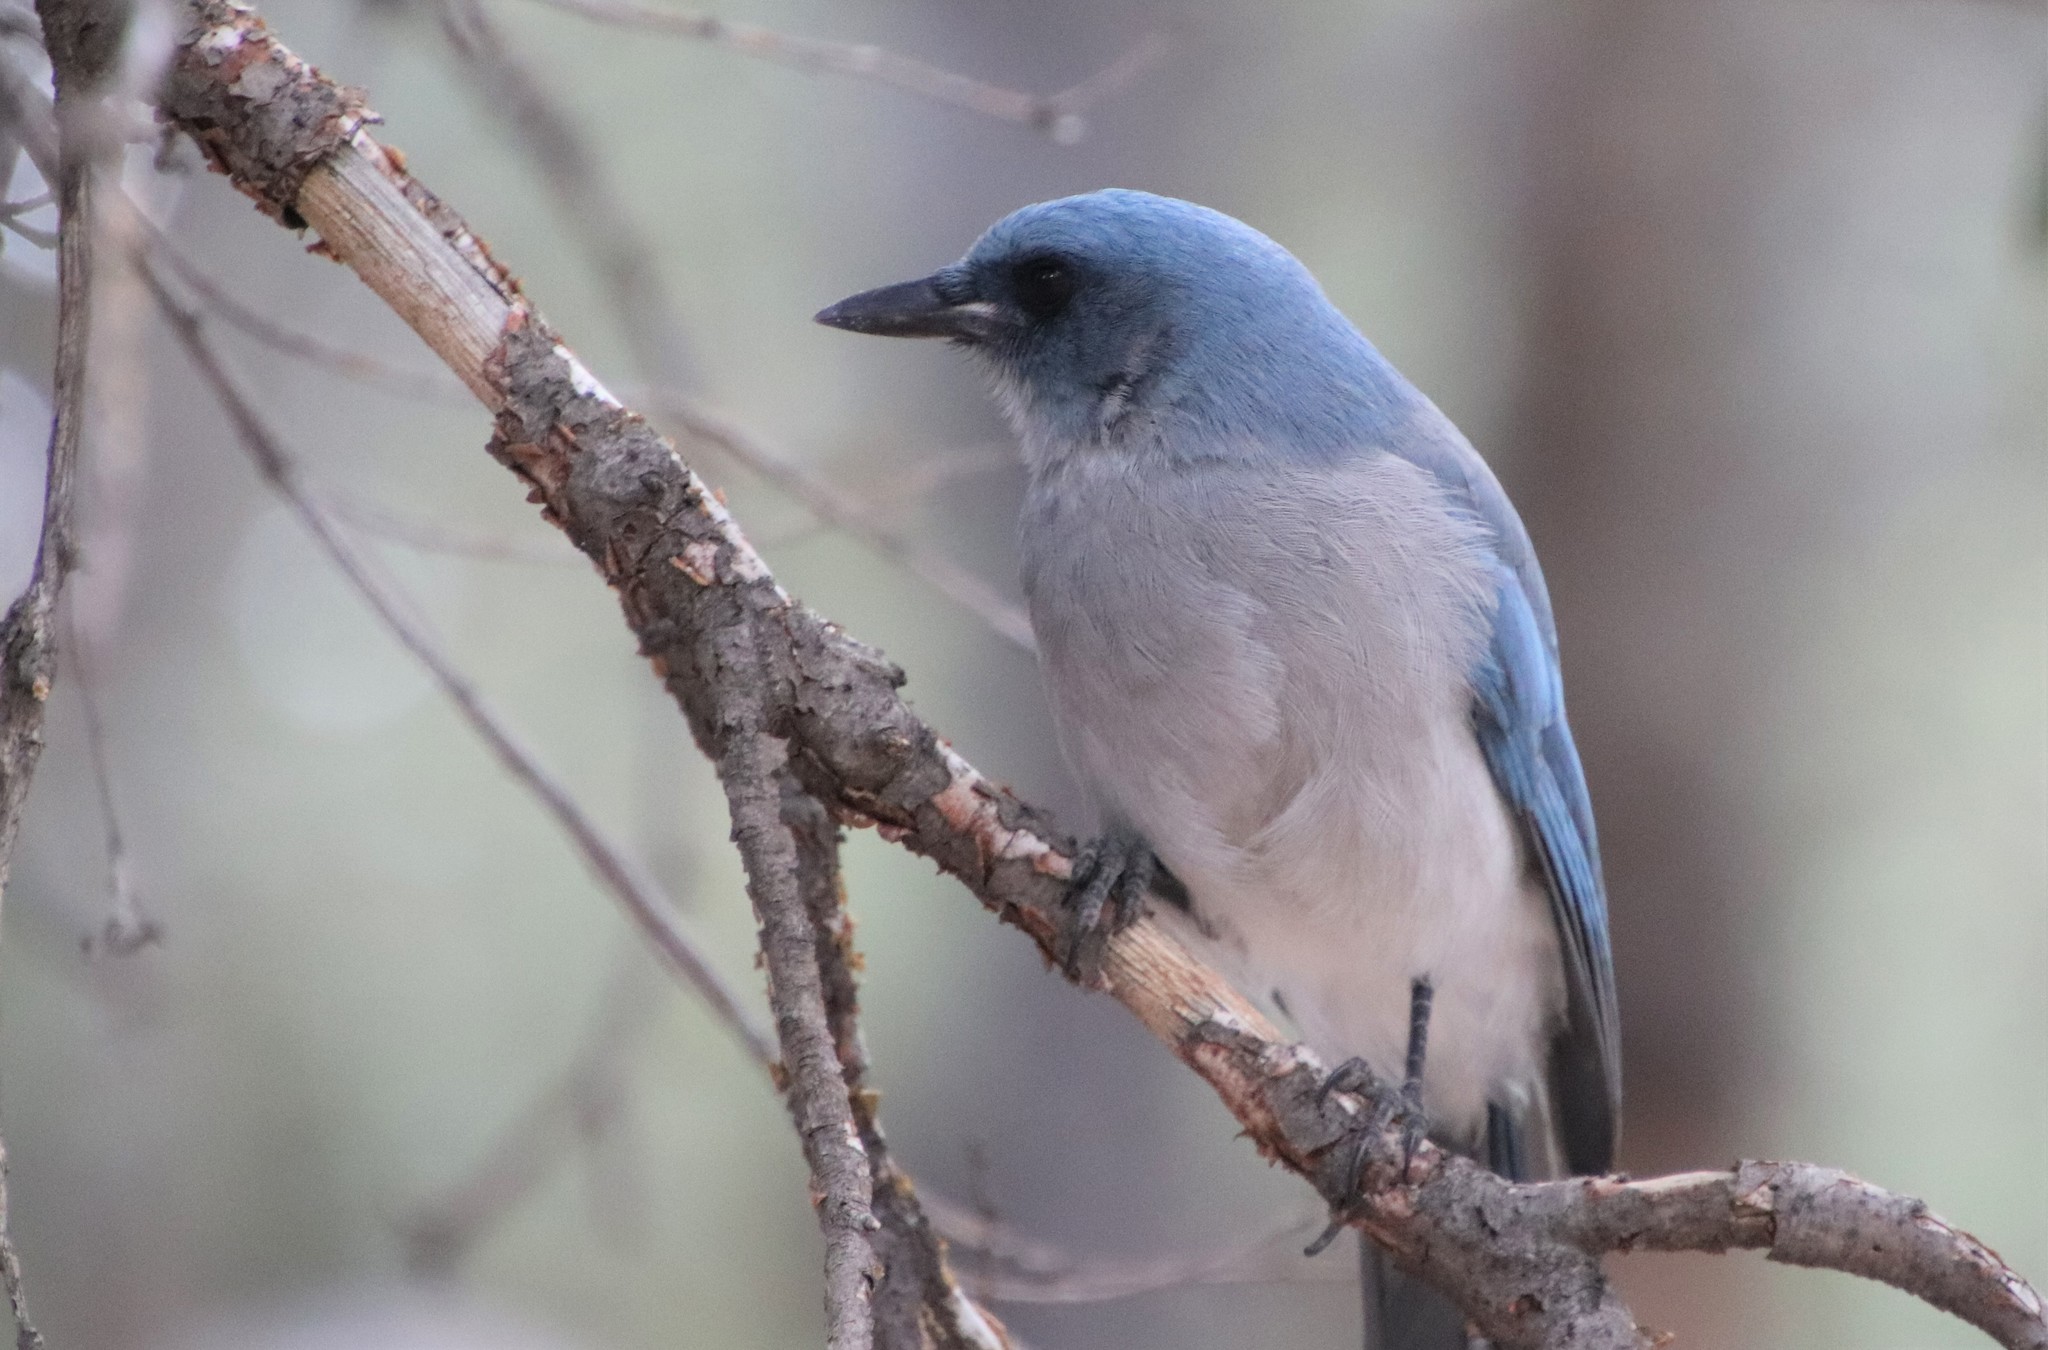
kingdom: Animalia
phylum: Chordata
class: Aves
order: Passeriformes
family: Corvidae
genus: Aphelocoma
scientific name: Aphelocoma wollweberi
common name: Mexican jay
